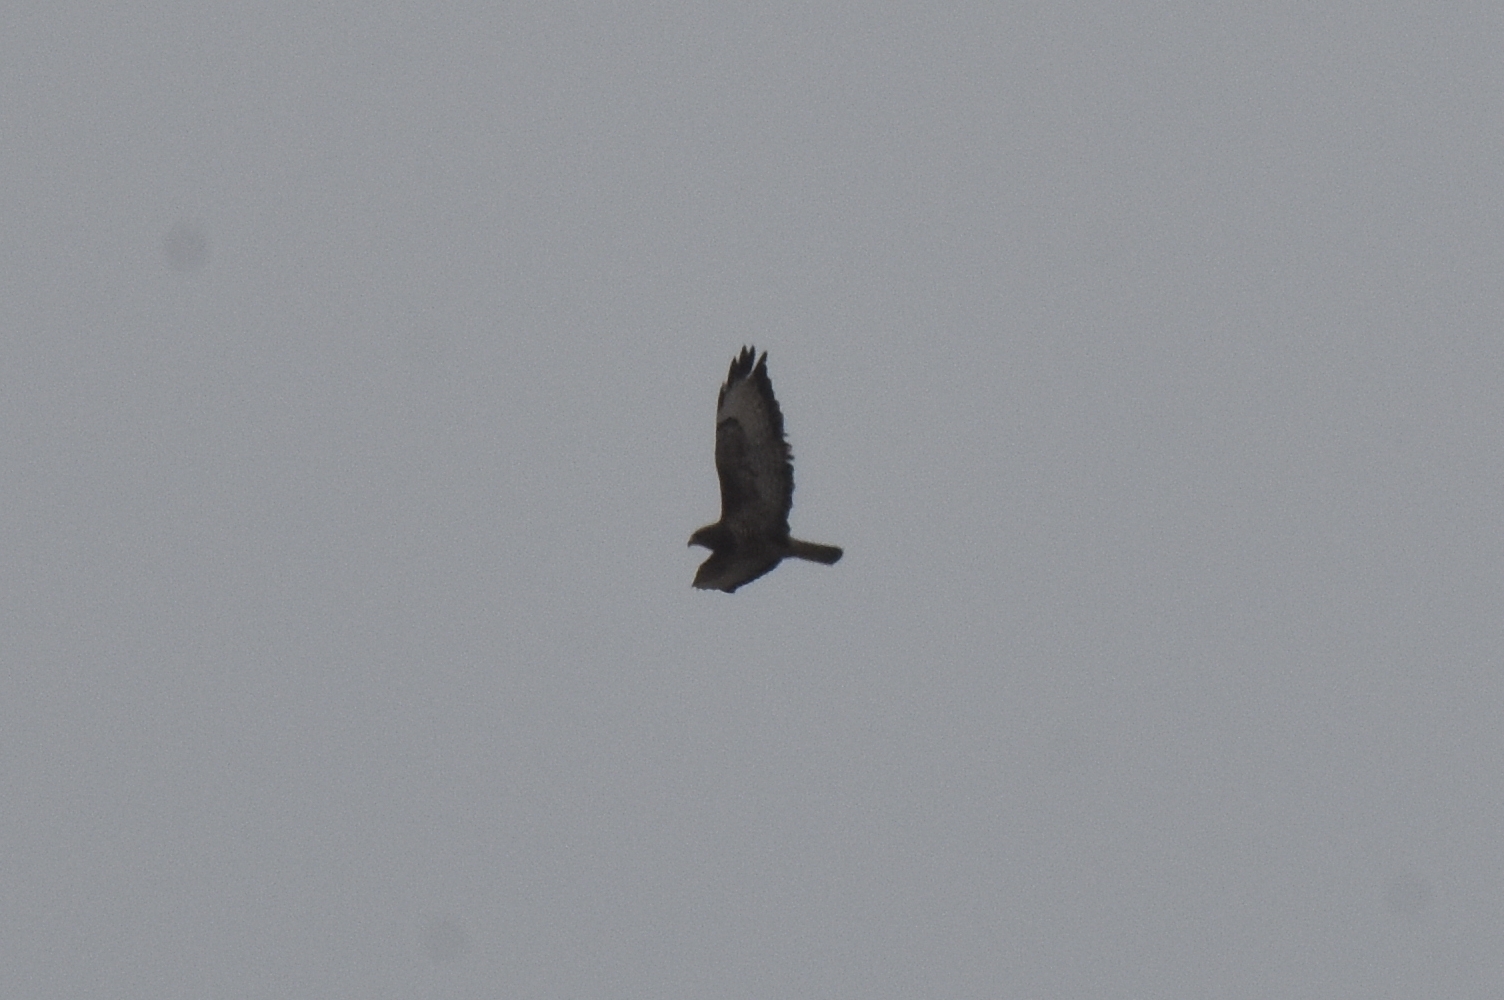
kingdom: Animalia
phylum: Chordata
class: Aves
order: Accipitriformes
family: Accipitridae
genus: Buteo
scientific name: Buteo buteo
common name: Common buzzard
